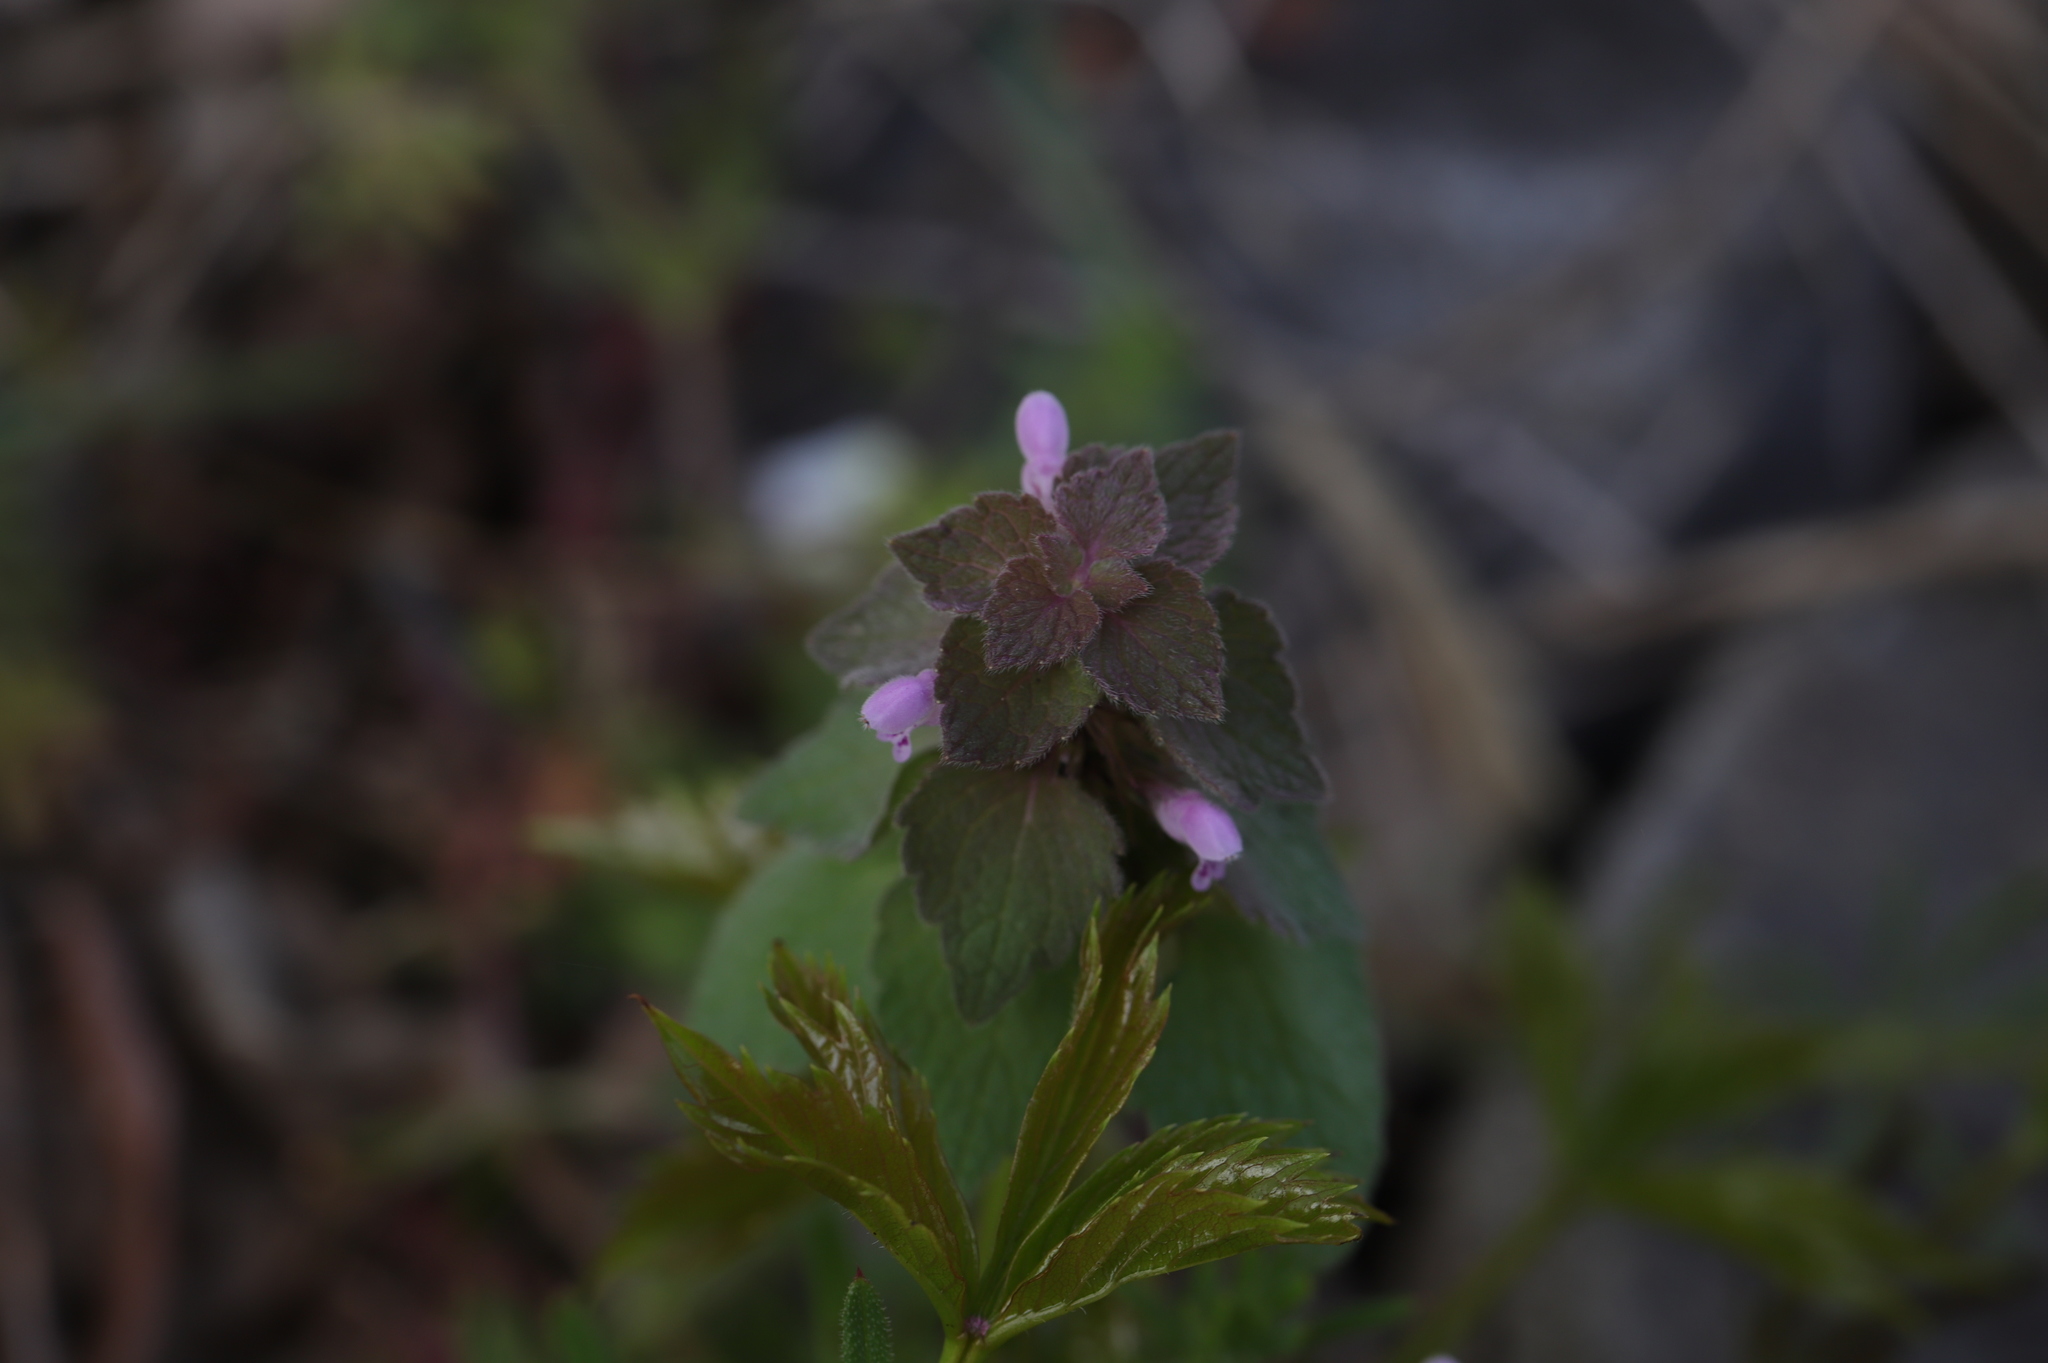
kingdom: Plantae
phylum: Tracheophyta
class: Magnoliopsida
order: Lamiales
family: Lamiaceae
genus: Lamium
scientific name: Lamium purpureum
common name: Red dead-nettle
